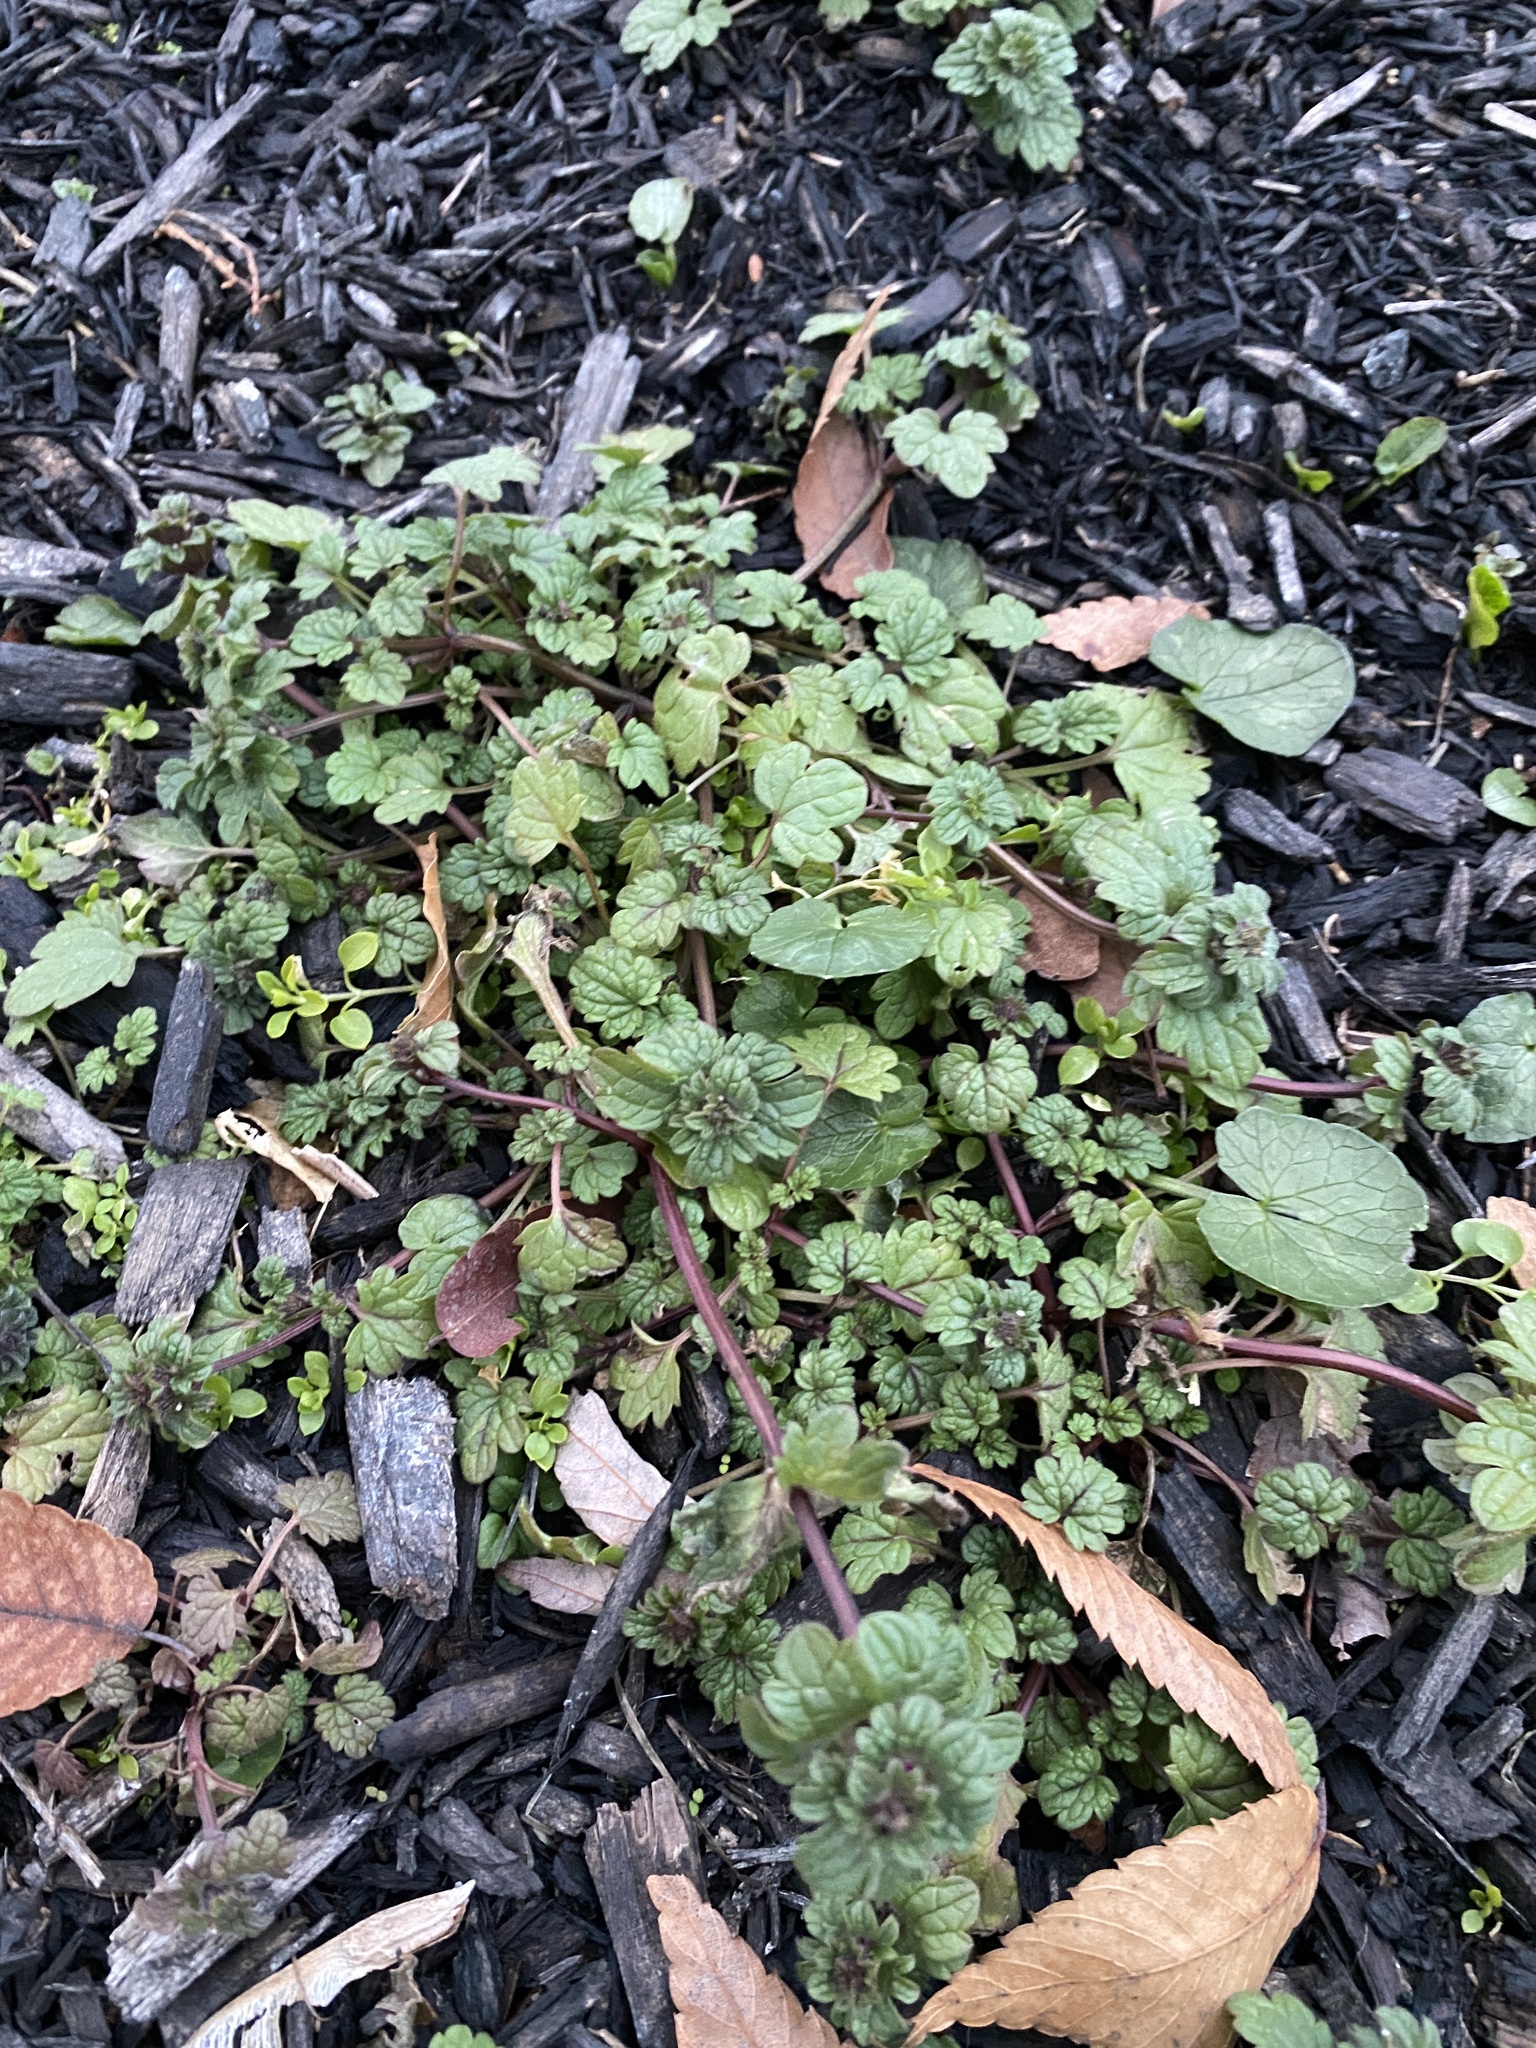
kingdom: Plantae
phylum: Tracheophyta
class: Magnoliopsida
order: Lamiales
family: Lamiaceae
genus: Lamium
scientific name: Lamium amplexicaule
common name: Henbit dead-nettle
